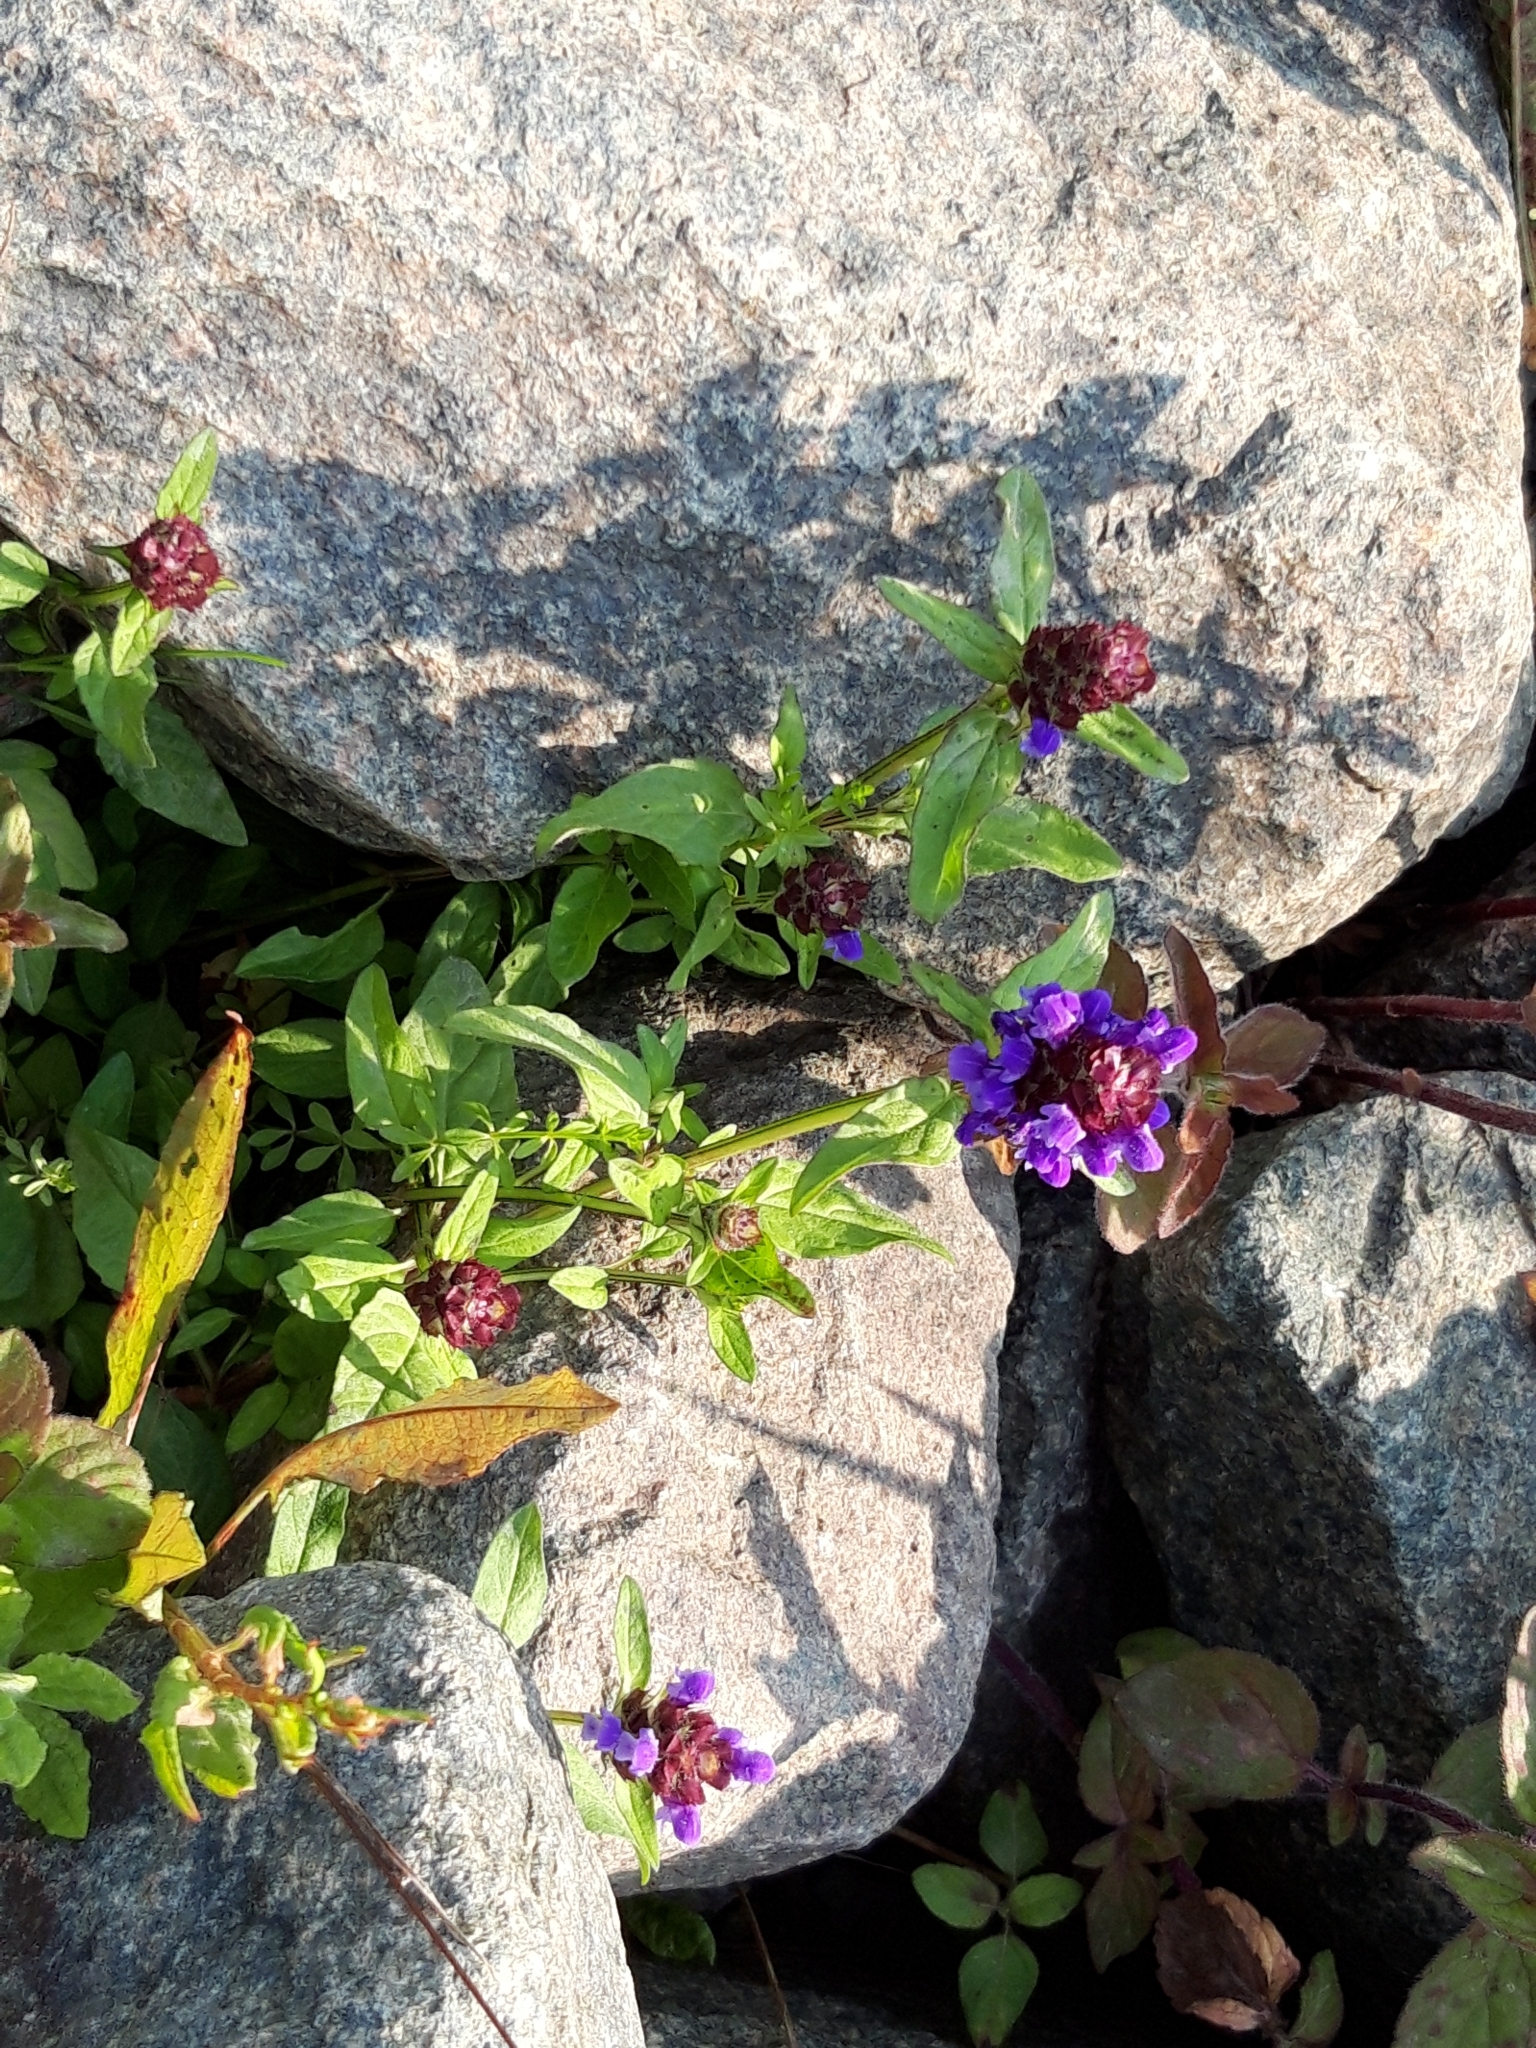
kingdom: Plantae
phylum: Tracheophyta
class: Magnoliopsida
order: Lamiales
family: Lamiaceae
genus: Prunella
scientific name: Prunella vulgaris
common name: Heal-all
